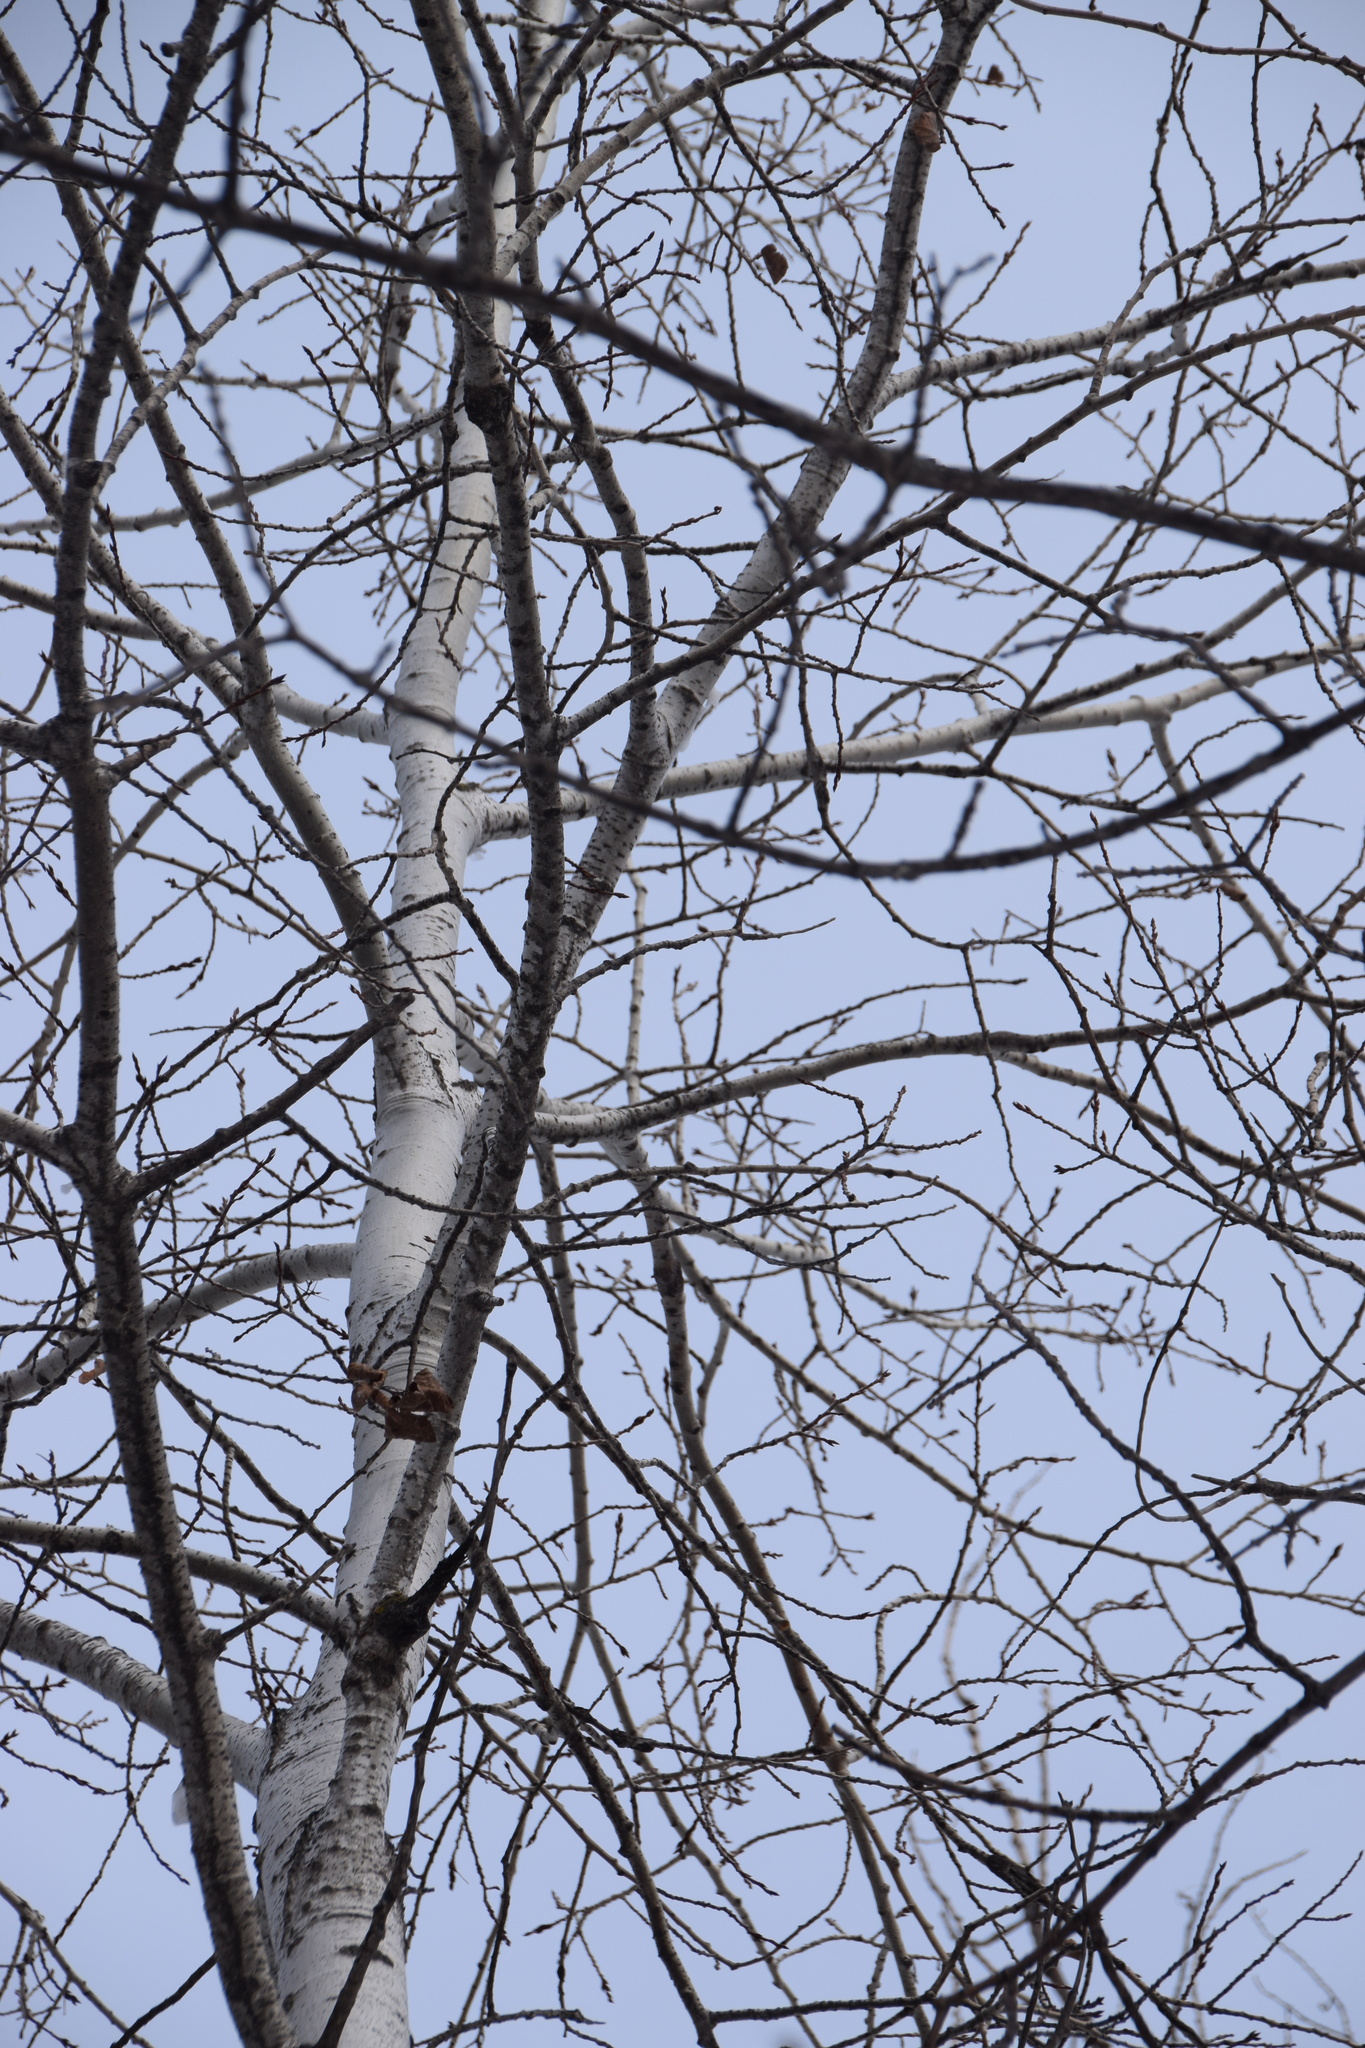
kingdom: Plantae
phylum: Tracheophyta
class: Magnoliopsida
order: Malpighiales
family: Salicaceae
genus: Populus
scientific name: Populus alba
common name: White poplar
